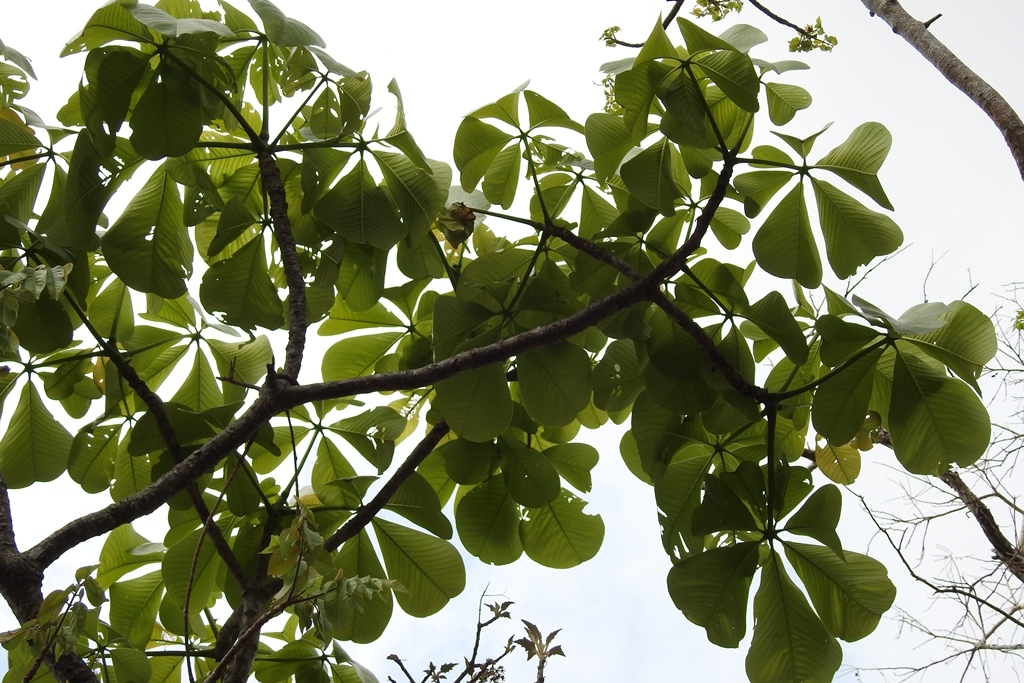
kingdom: Plantae
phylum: Tracheophyta
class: Magnoliopsida
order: Malvales
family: Malvaceae
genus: Pseudobombax
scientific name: Pseudobombax ellipticum
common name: Shaving-brush-tree
